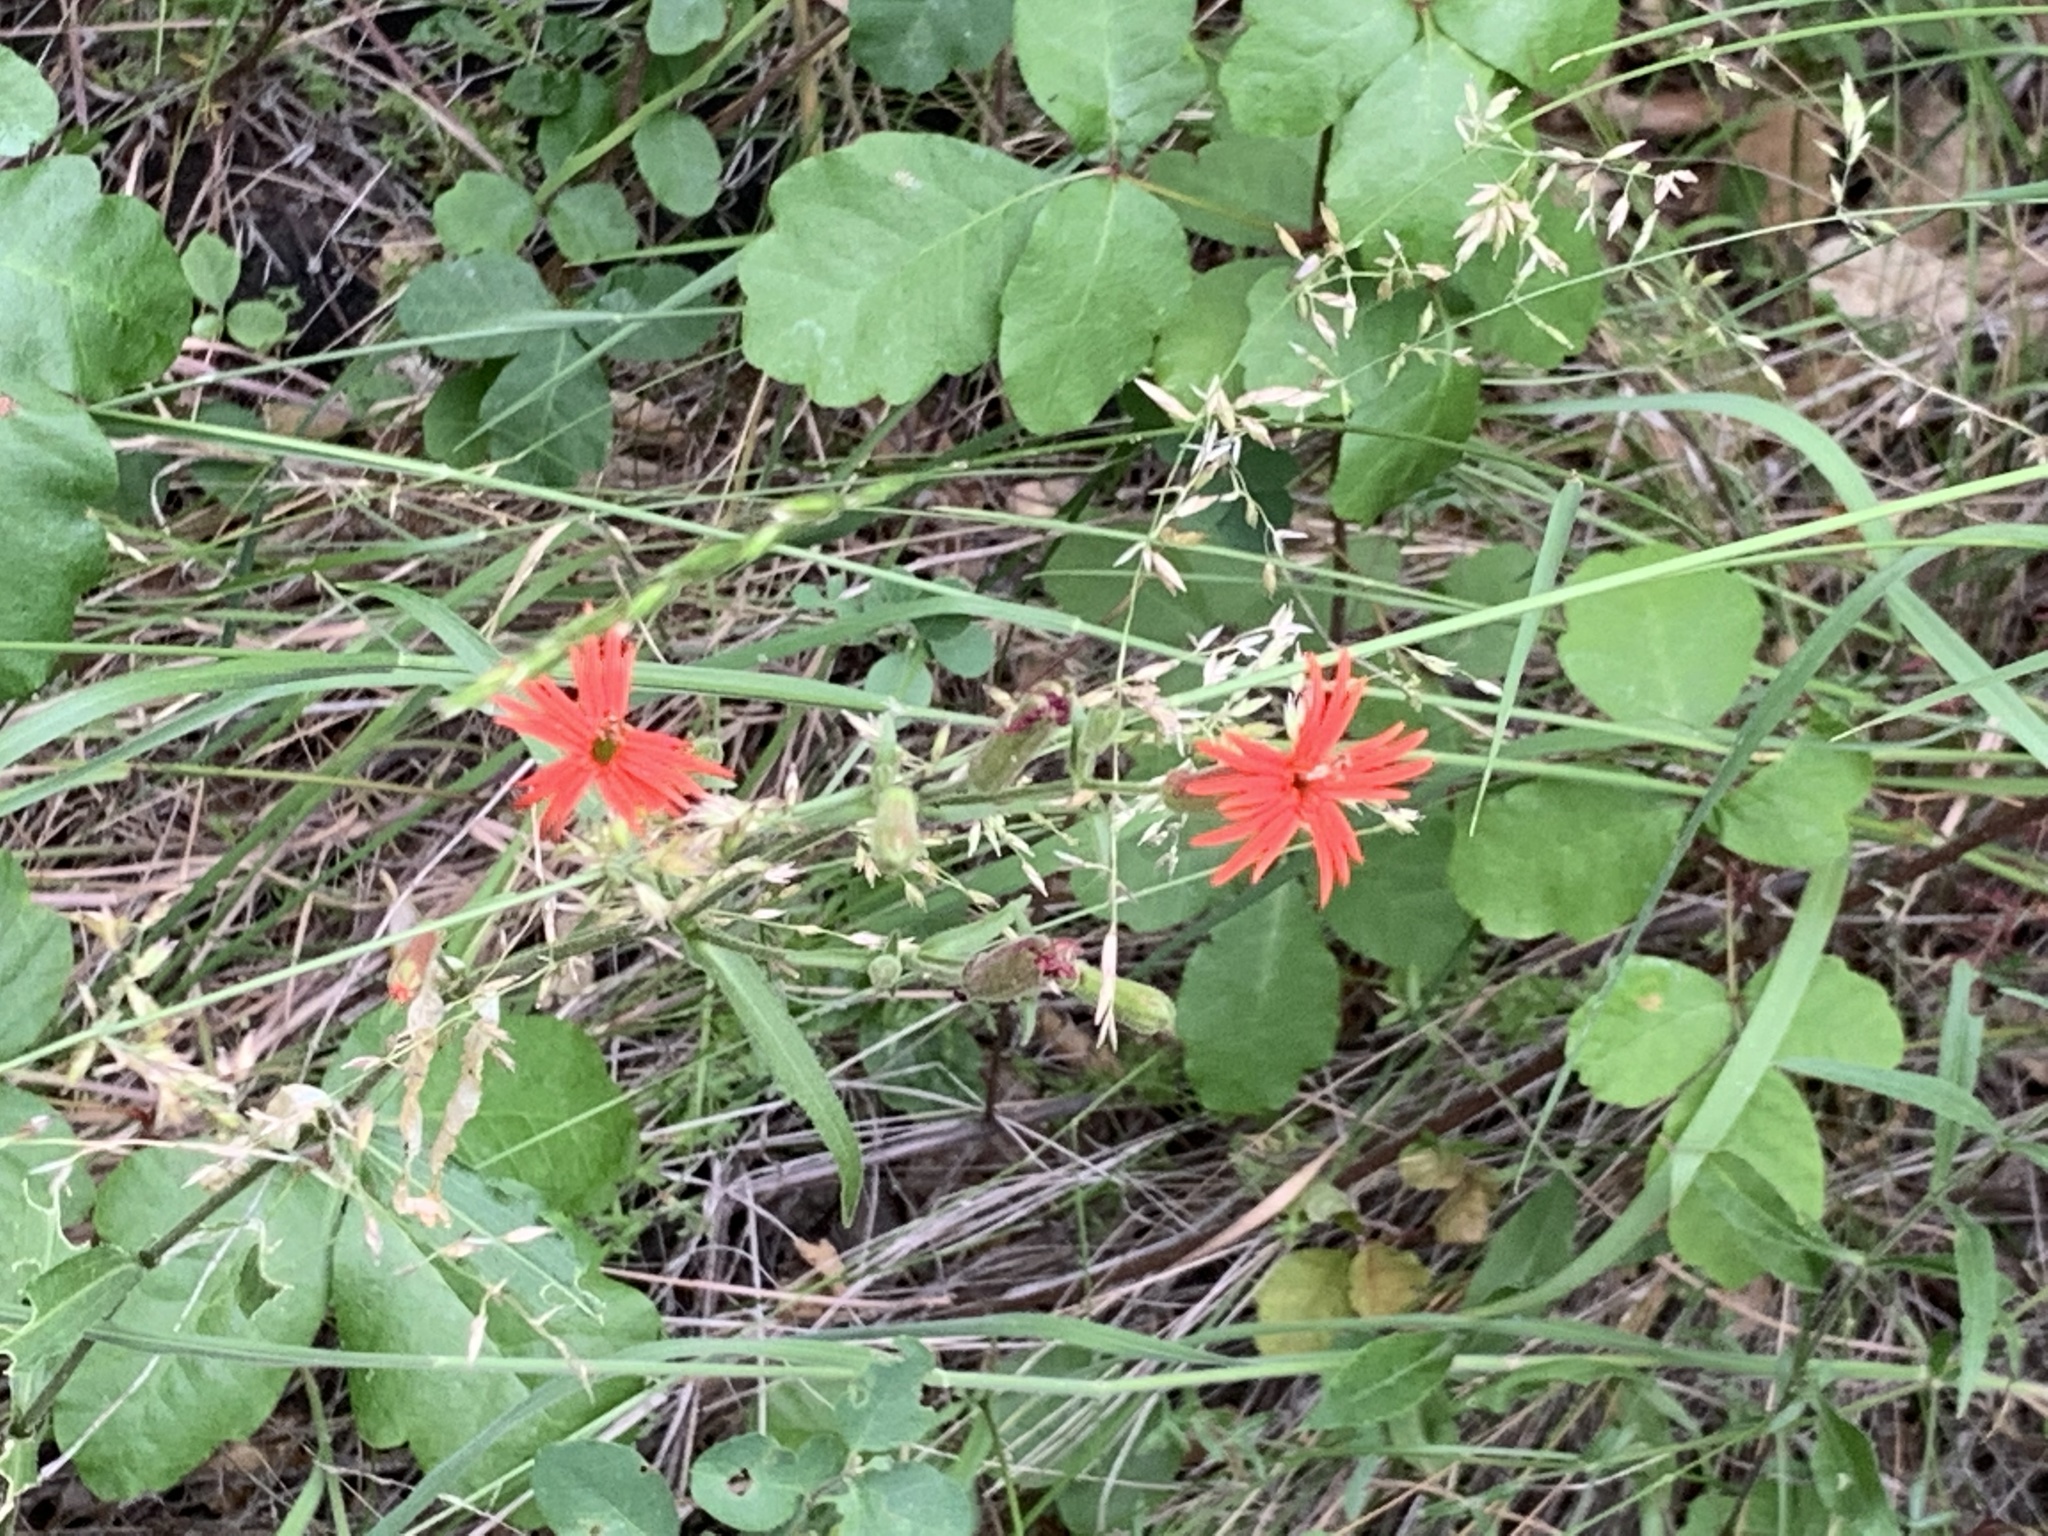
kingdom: Plantae
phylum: Tracheophyta
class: Magnoliopsida
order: Caryophyllales
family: Caryophyllaceae
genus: Silene
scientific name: Silene laciniata
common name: Indian-pink
